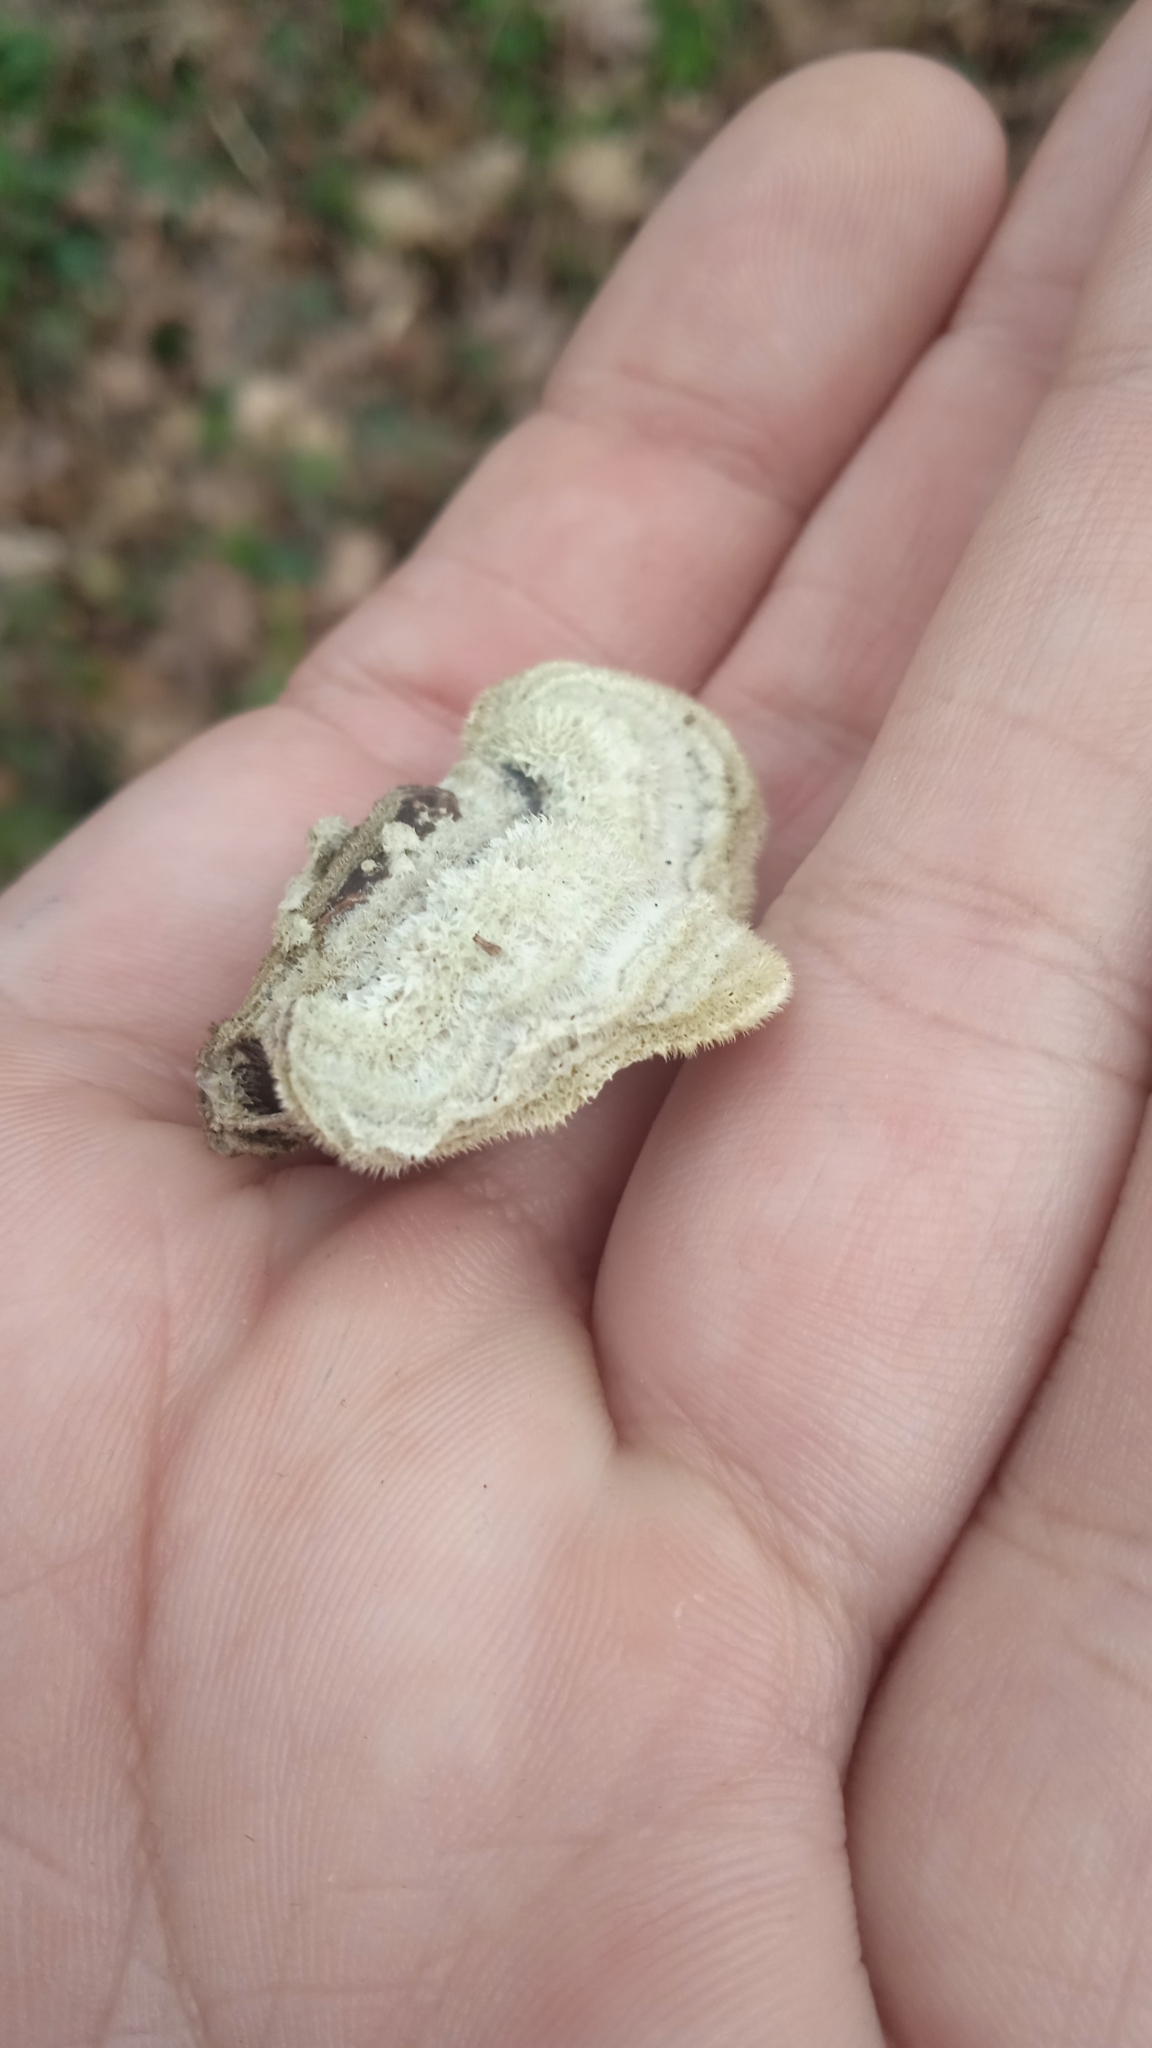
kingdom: Fungi
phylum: Basidiomycota
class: Agaricomycetes
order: Polyporales
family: Cerrenaceae
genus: Cerrena
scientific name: Cerrena unicolor
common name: Mossy maze polypore
